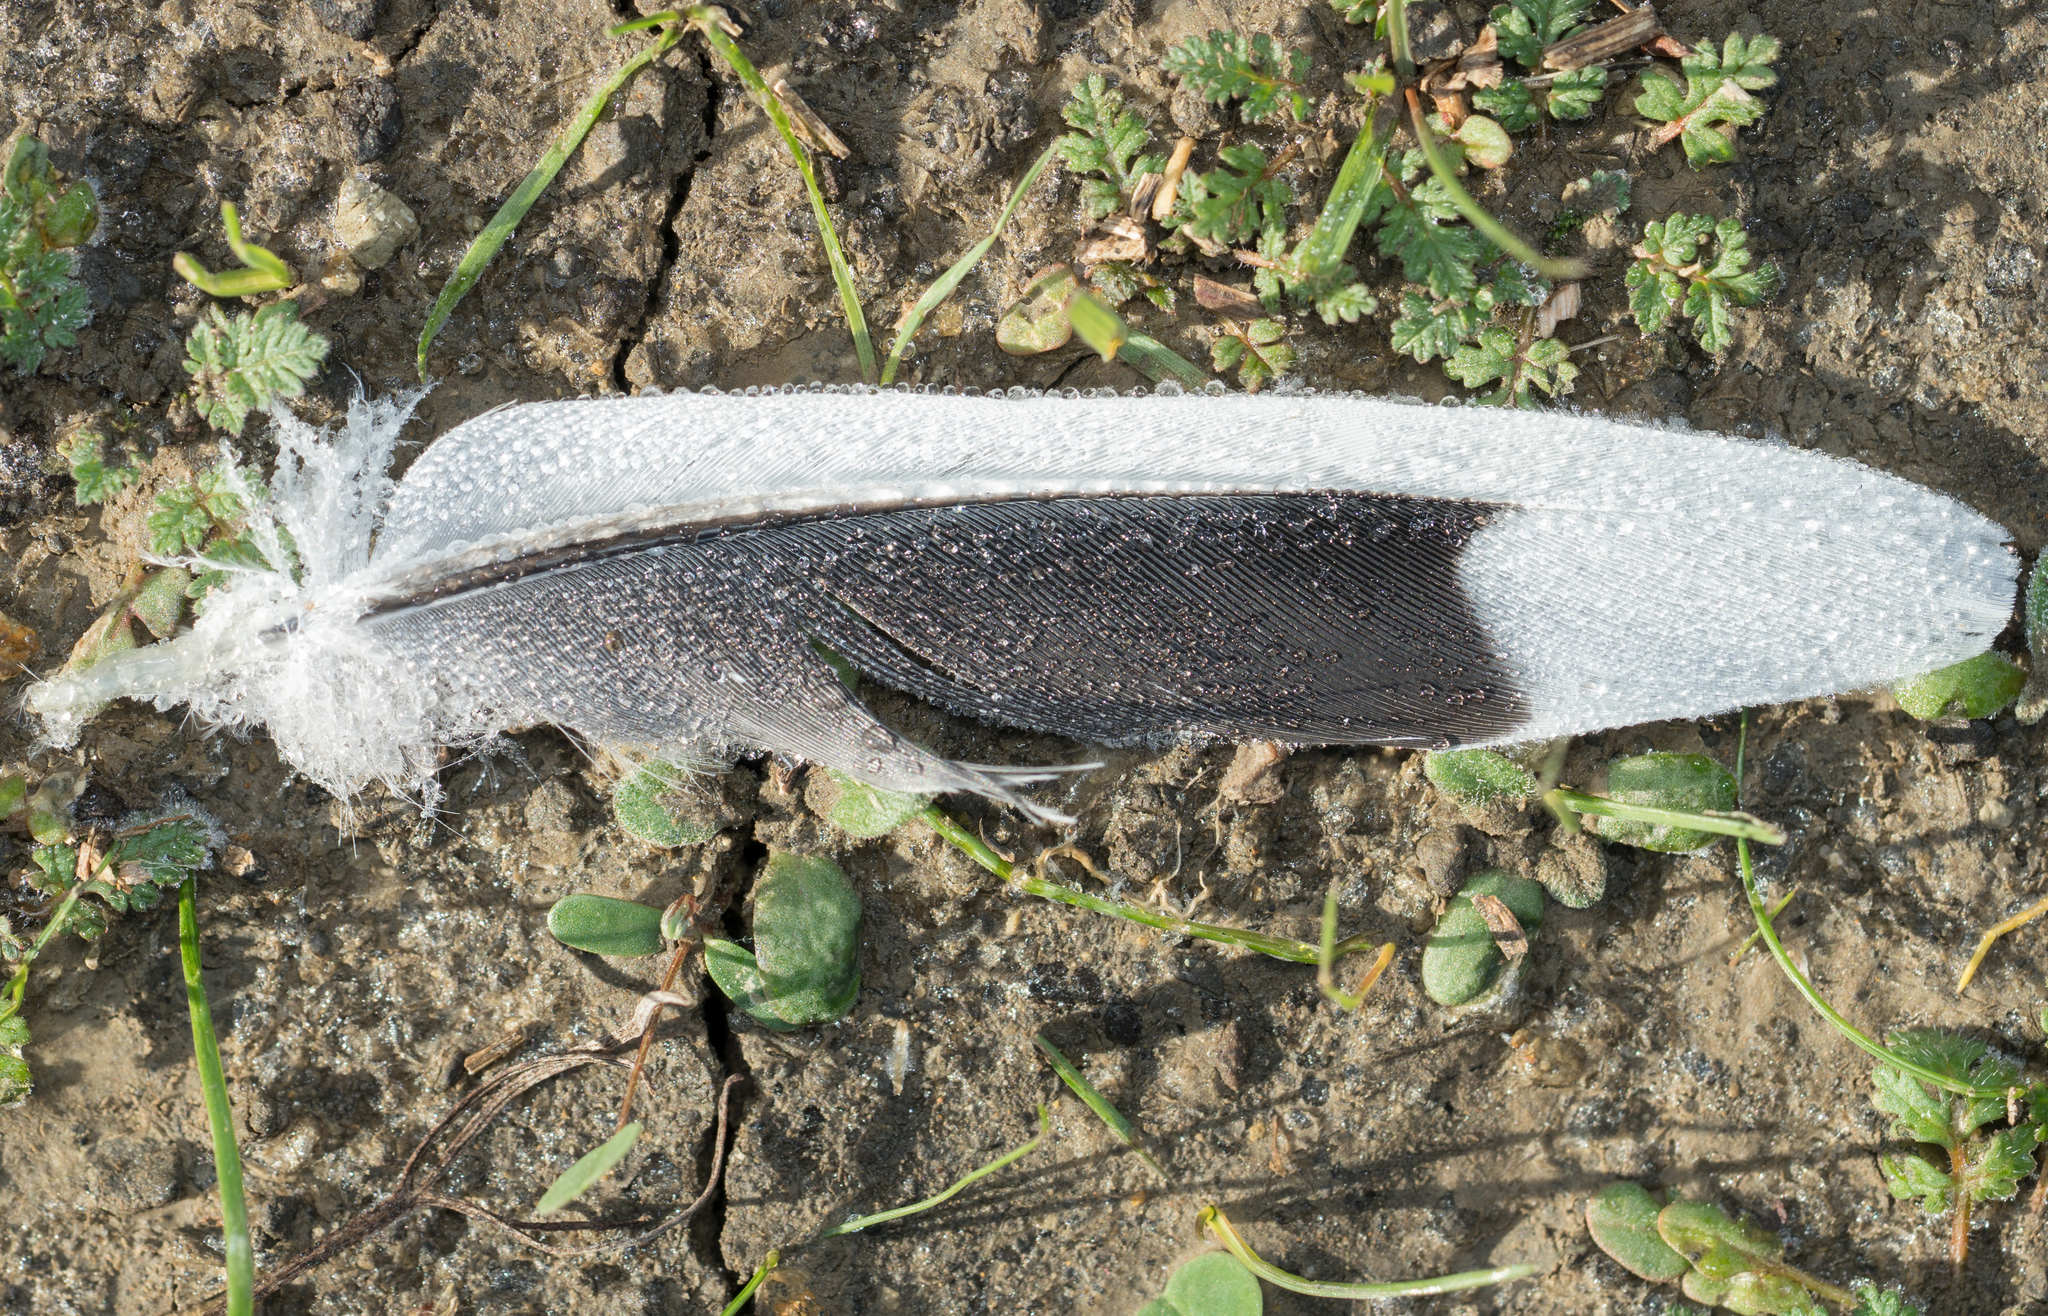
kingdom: Animalia
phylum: Chordata
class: Aves
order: Columbiformes
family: Columbidae
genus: Zenaida
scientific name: Zenaida macroura
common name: Mourning dove
